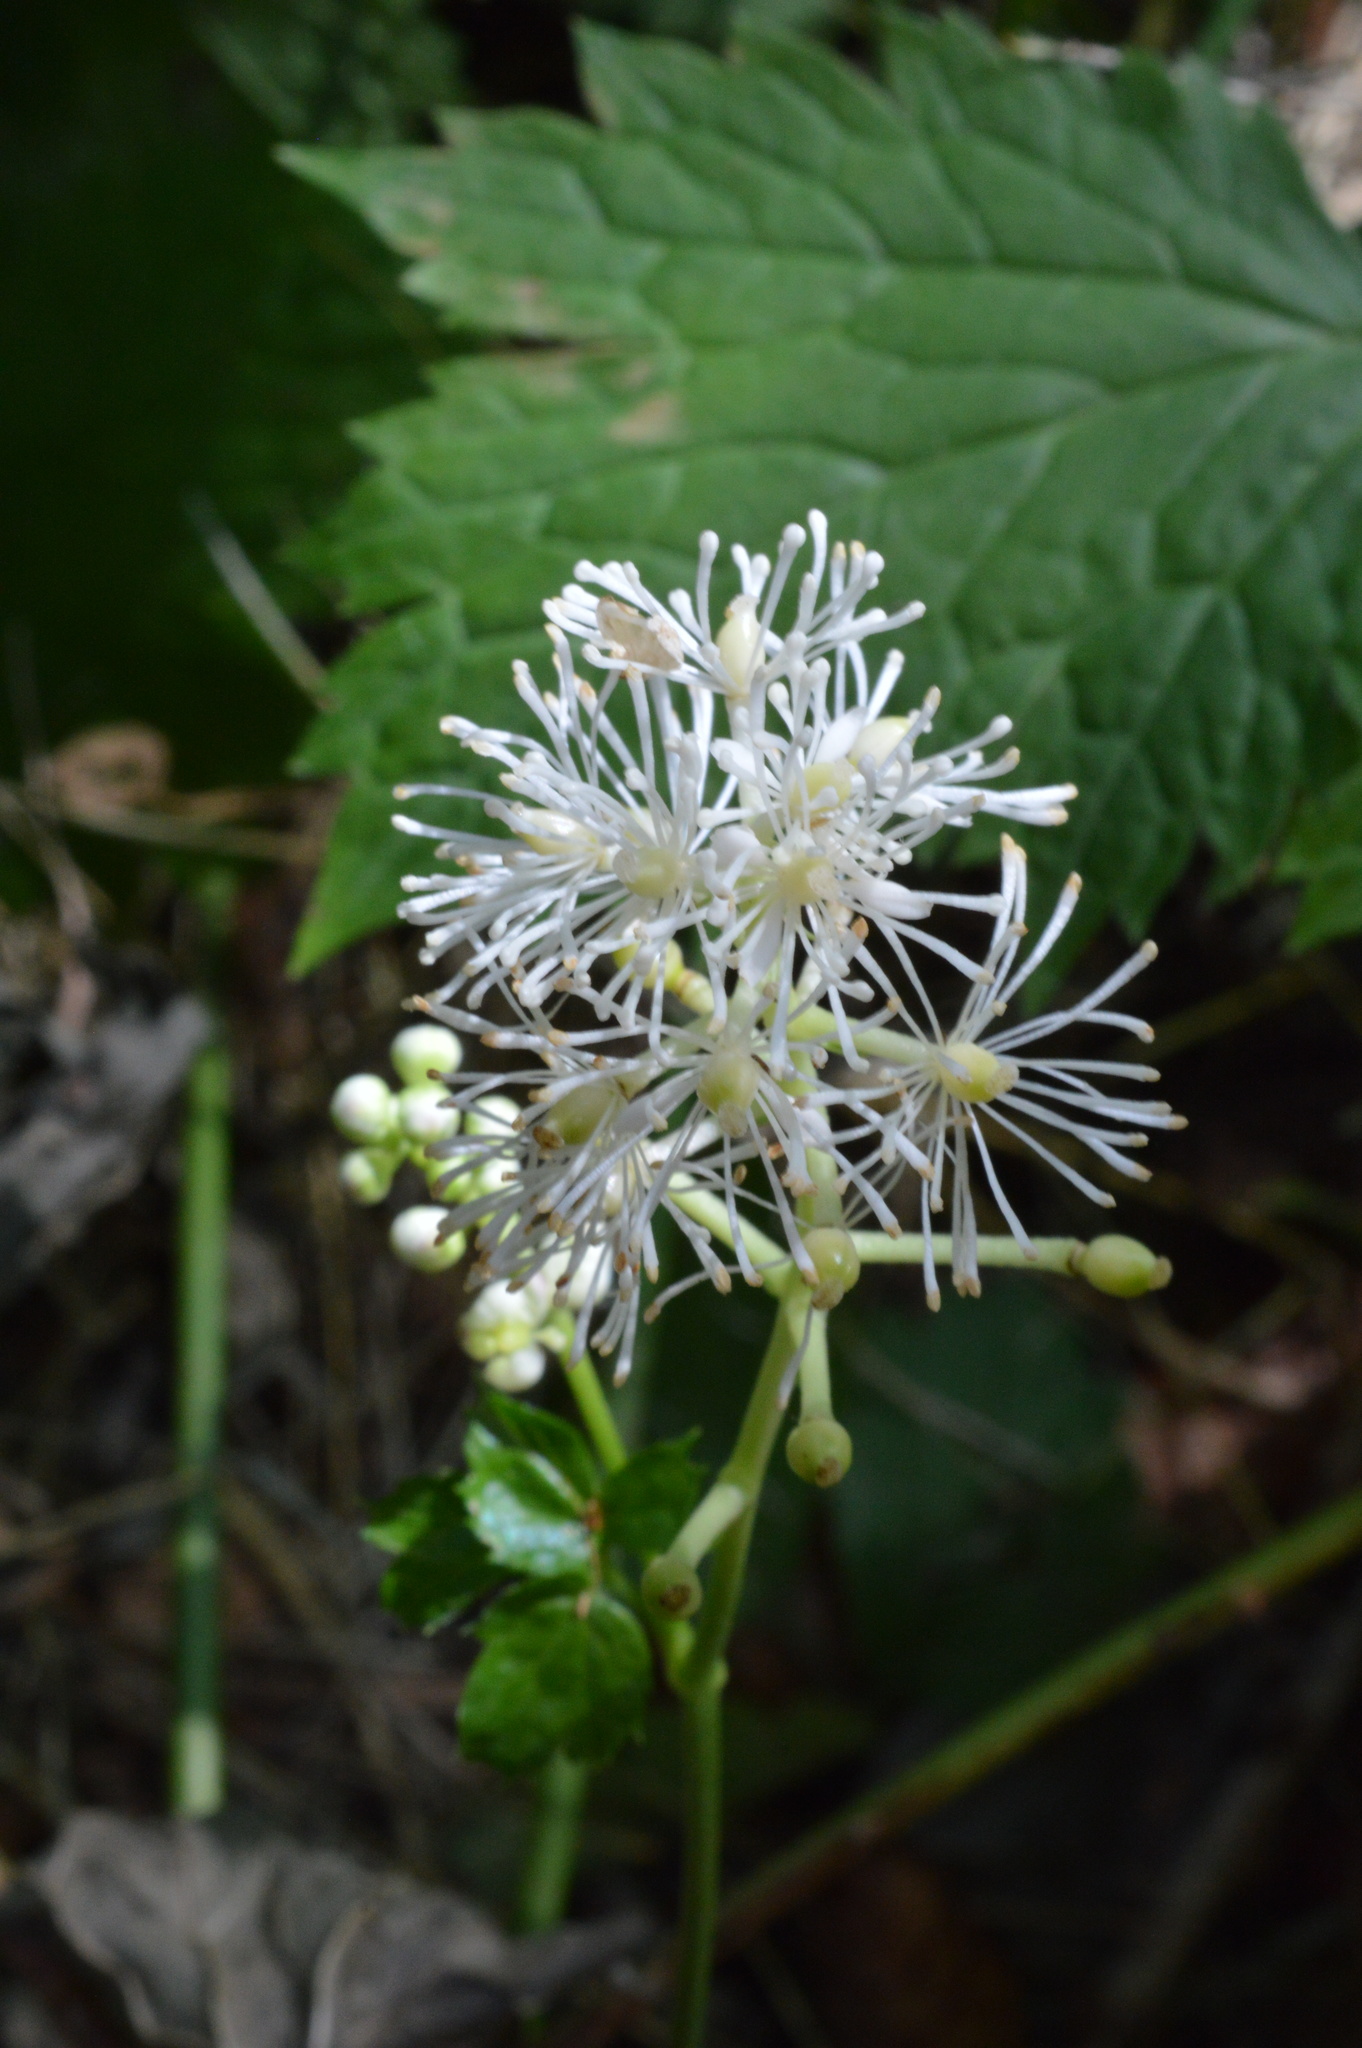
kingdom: Plantae
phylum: Tracheophyta
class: Magnoliopsida
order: Ranunculales
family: Ranunculaceae
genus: Actaea
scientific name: Actaea spicata
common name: Baneberry
